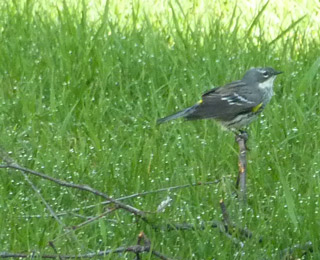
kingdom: Animalia
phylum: Chordata
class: Aves
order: Passeriformes
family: Parulidae
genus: Setophaga
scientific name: Setophaga coronata
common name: Myrtle warbler
